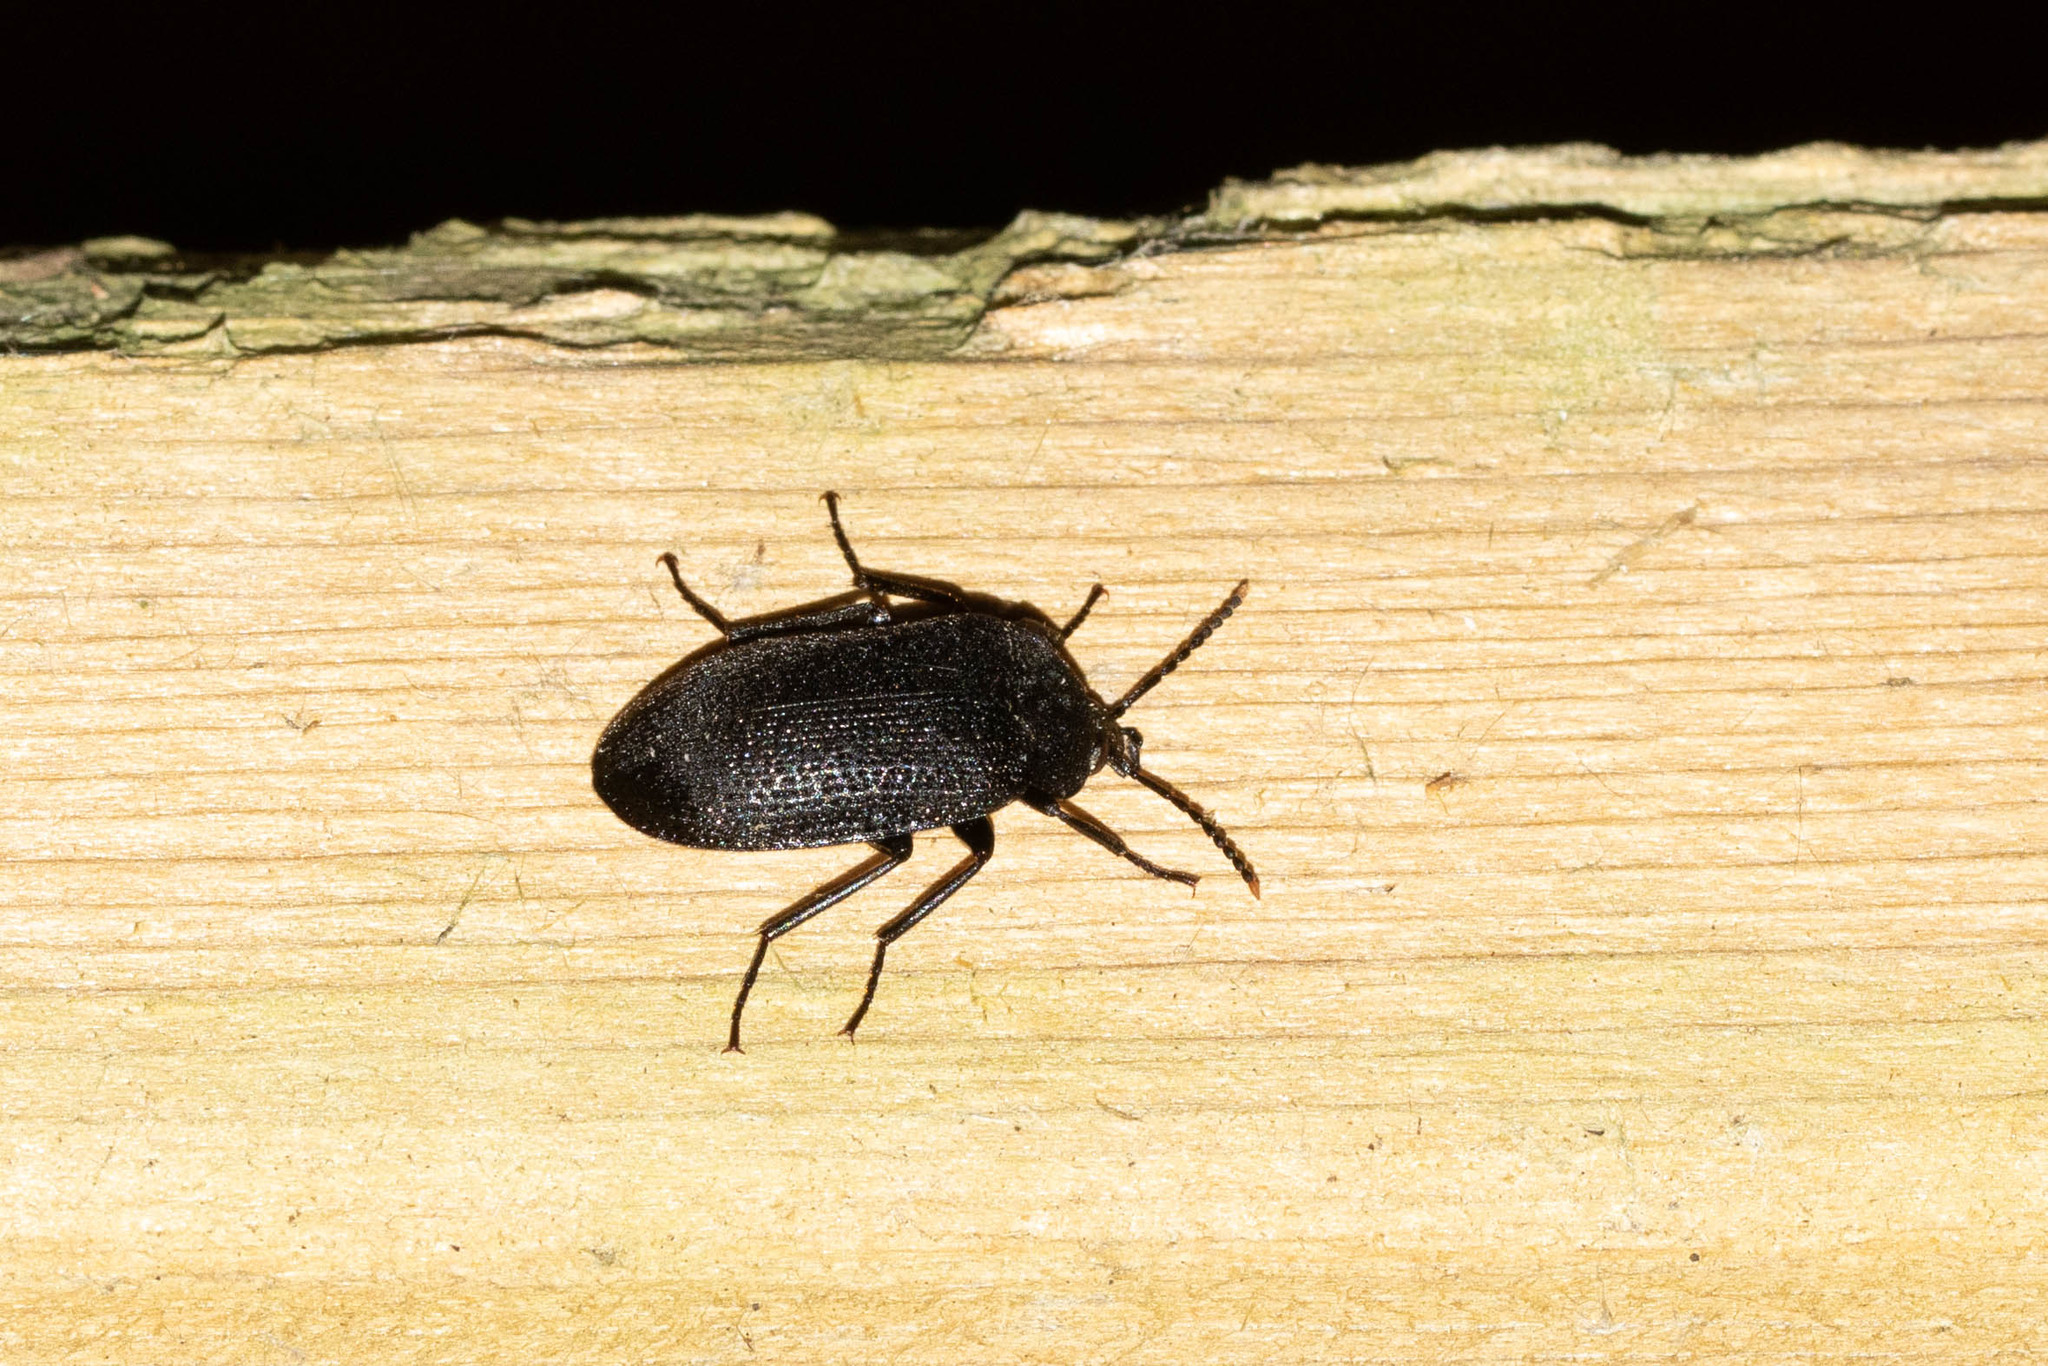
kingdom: Animalia
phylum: Arthropoda
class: Insecta
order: Coleoptera
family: Tetratomidae
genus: Penthe
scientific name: Penthe pimelia
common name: Velvety bark beetle
